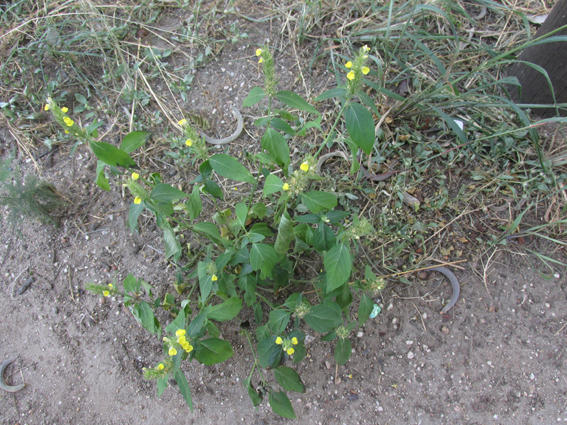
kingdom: Plantae
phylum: Tracheophyta
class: Magnoliopsida
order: Lamiales
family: Acanthaceae
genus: Justicia
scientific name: Justicia flava
